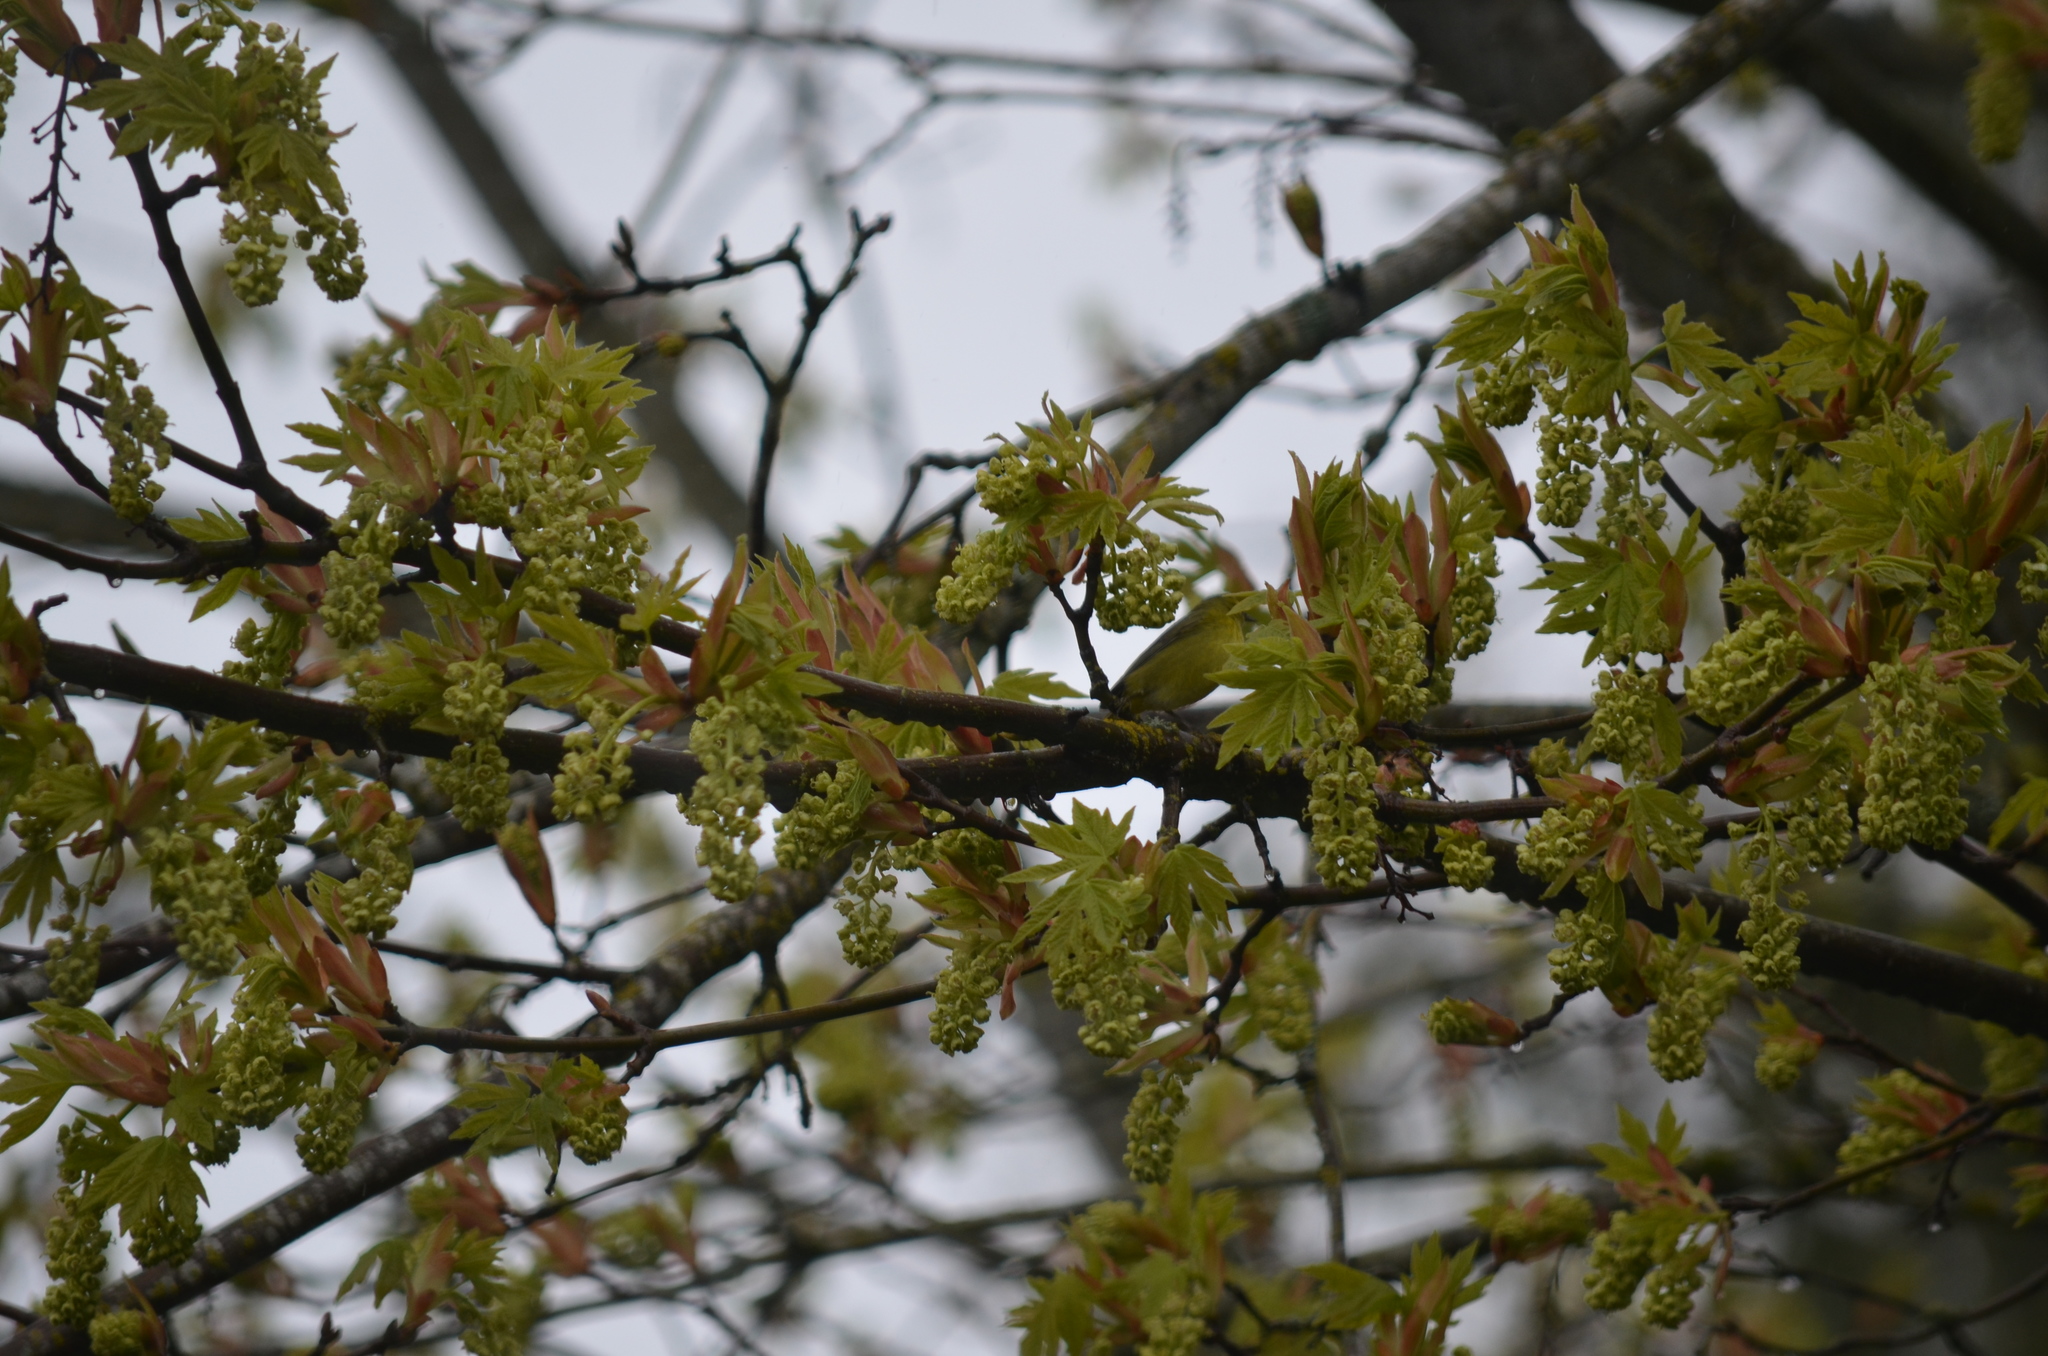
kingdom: Animalia
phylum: Chordata
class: Aves
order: Passeriformes
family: Parulidae
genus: Leiothlypis
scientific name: Leiothlypis celata
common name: Orange-crowned warbler
